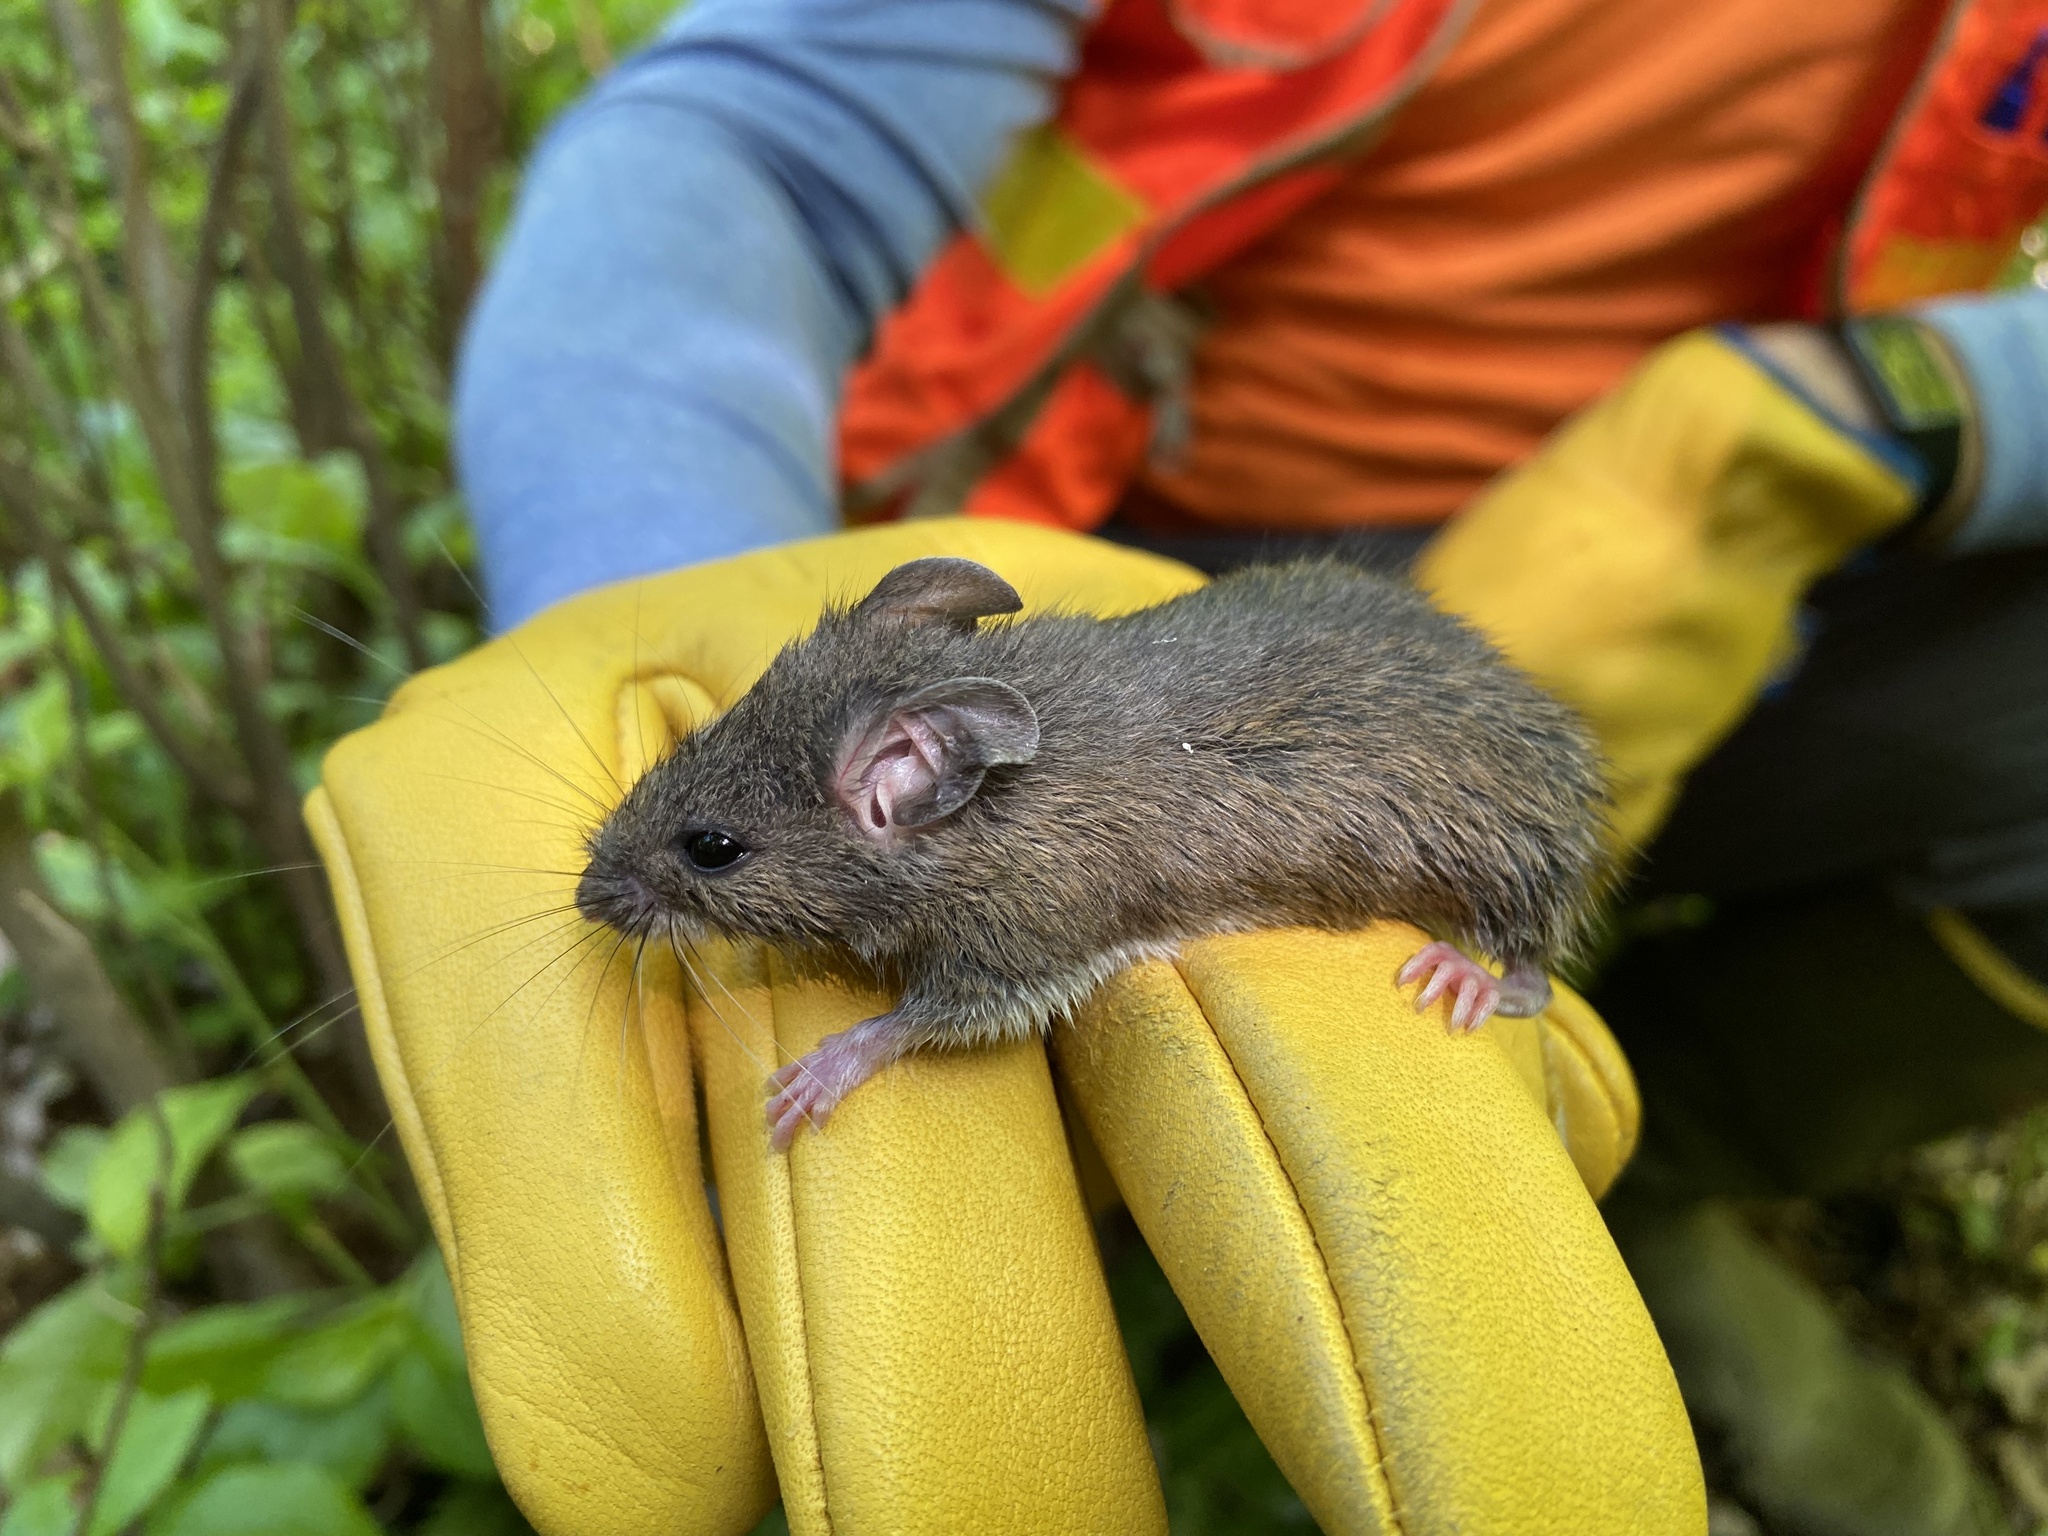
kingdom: Animalia
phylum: Chordata
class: Mammalia
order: Rodentia
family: Cricetidae
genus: Peromyscus
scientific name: Peromyscus leucopus
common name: White-footed deermouse
